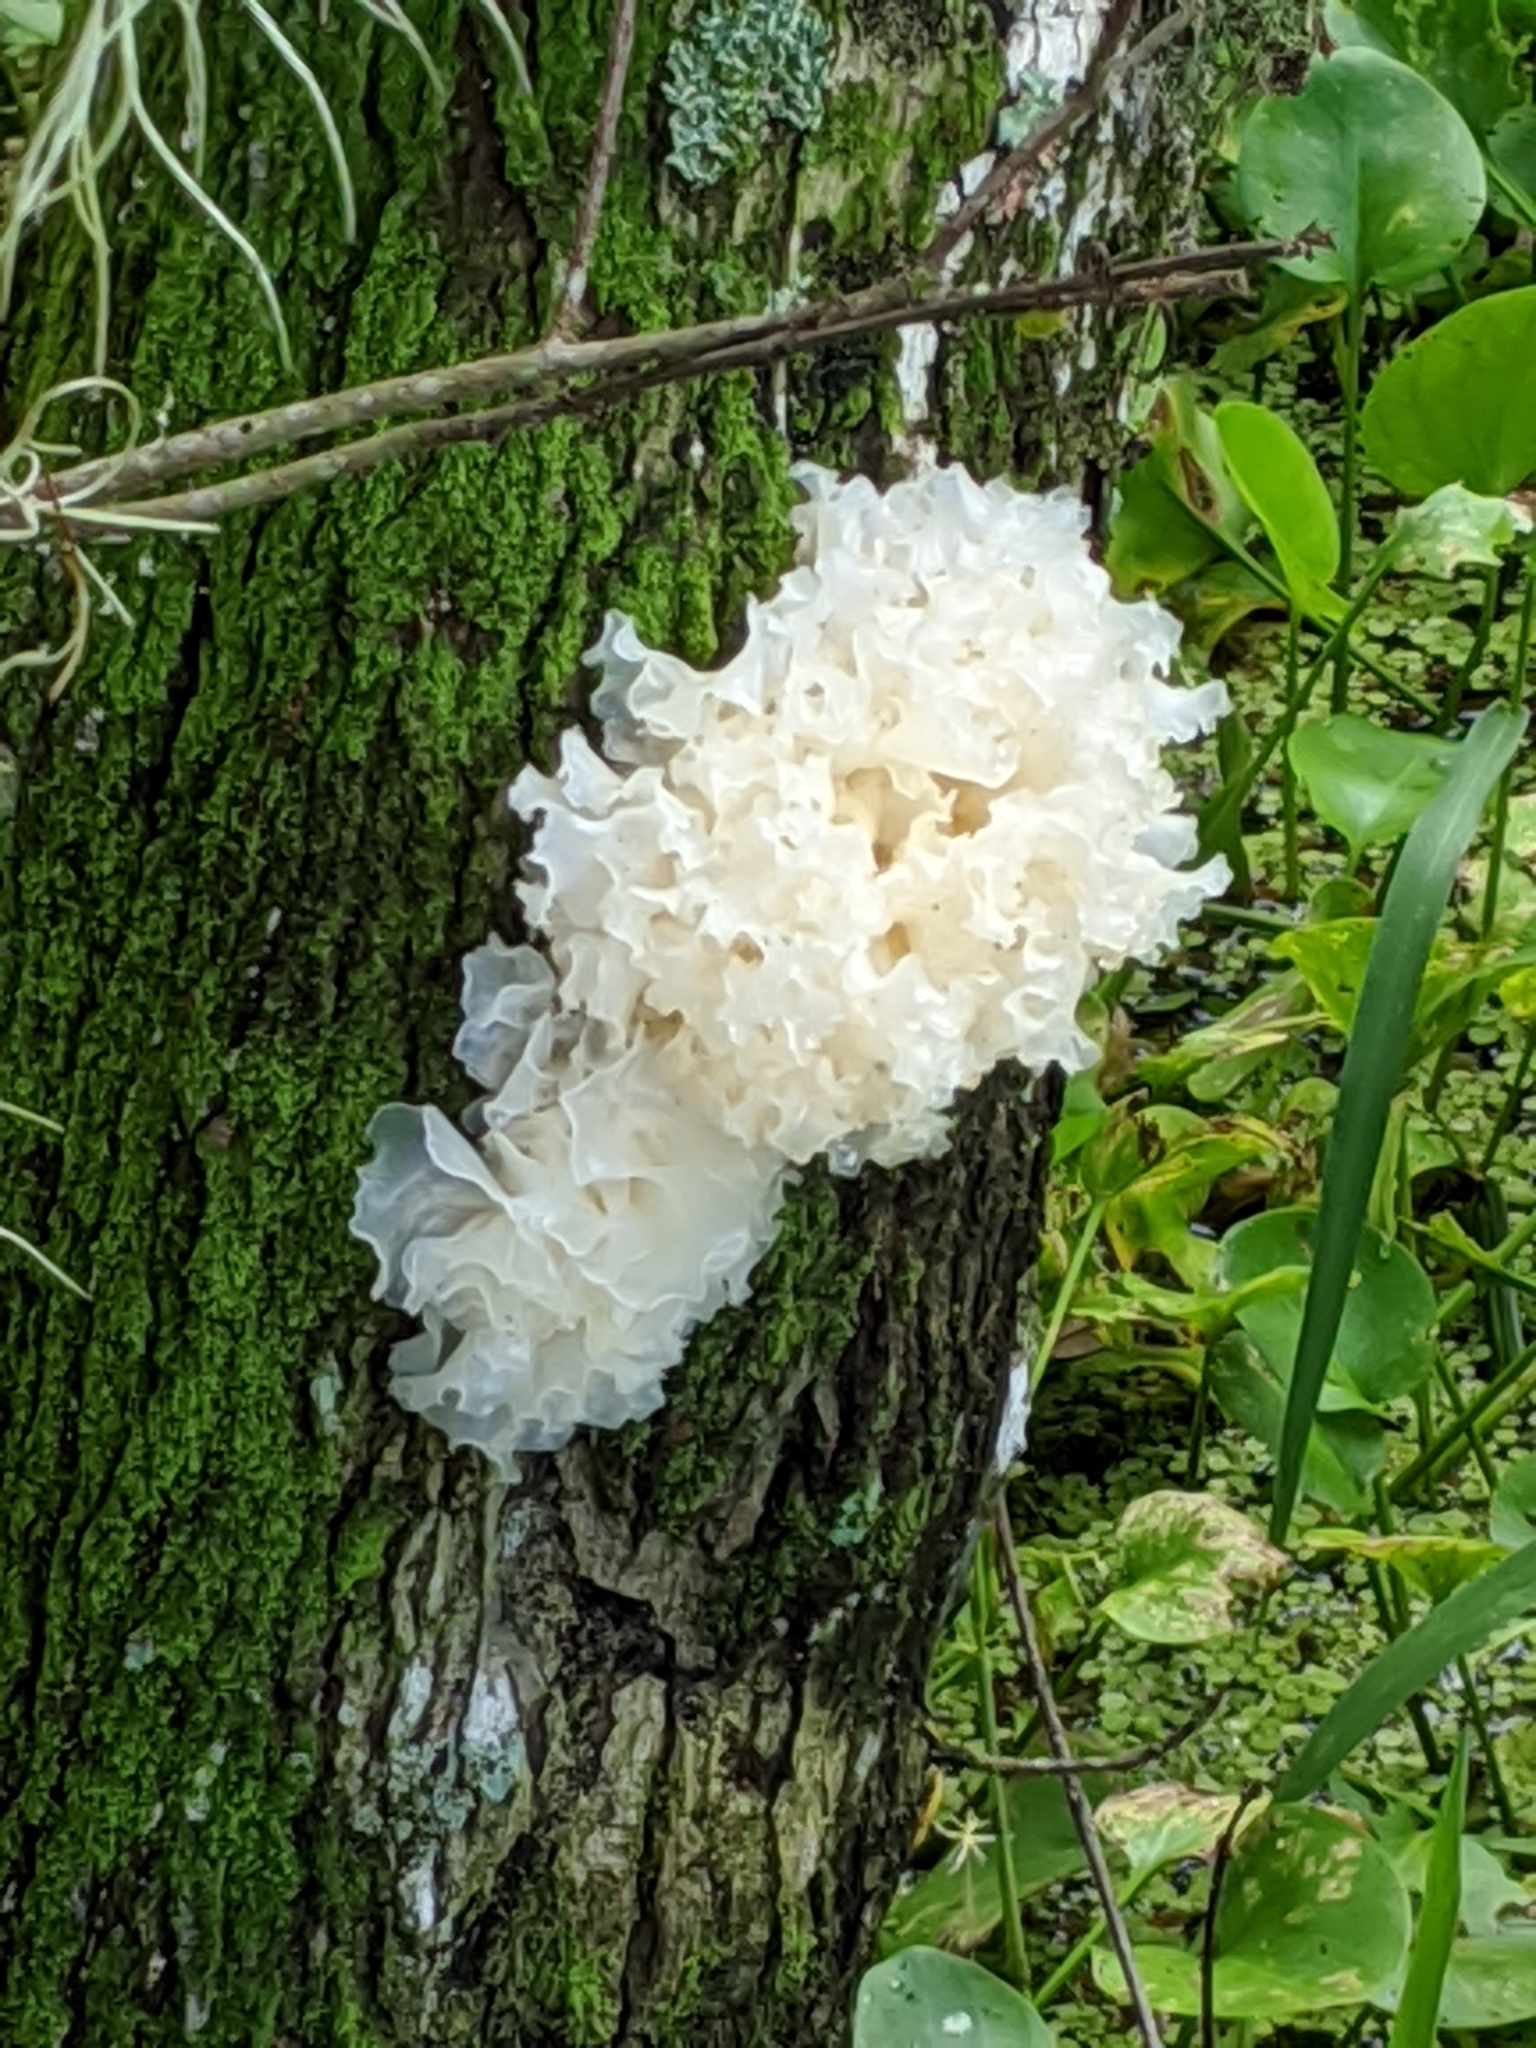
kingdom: Fungi
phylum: Basidiomycota
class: Tremellomycetes
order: Tremellales
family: Tremellaceae
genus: Tremella
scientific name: Tremella fuciformis
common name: Snow fungus
